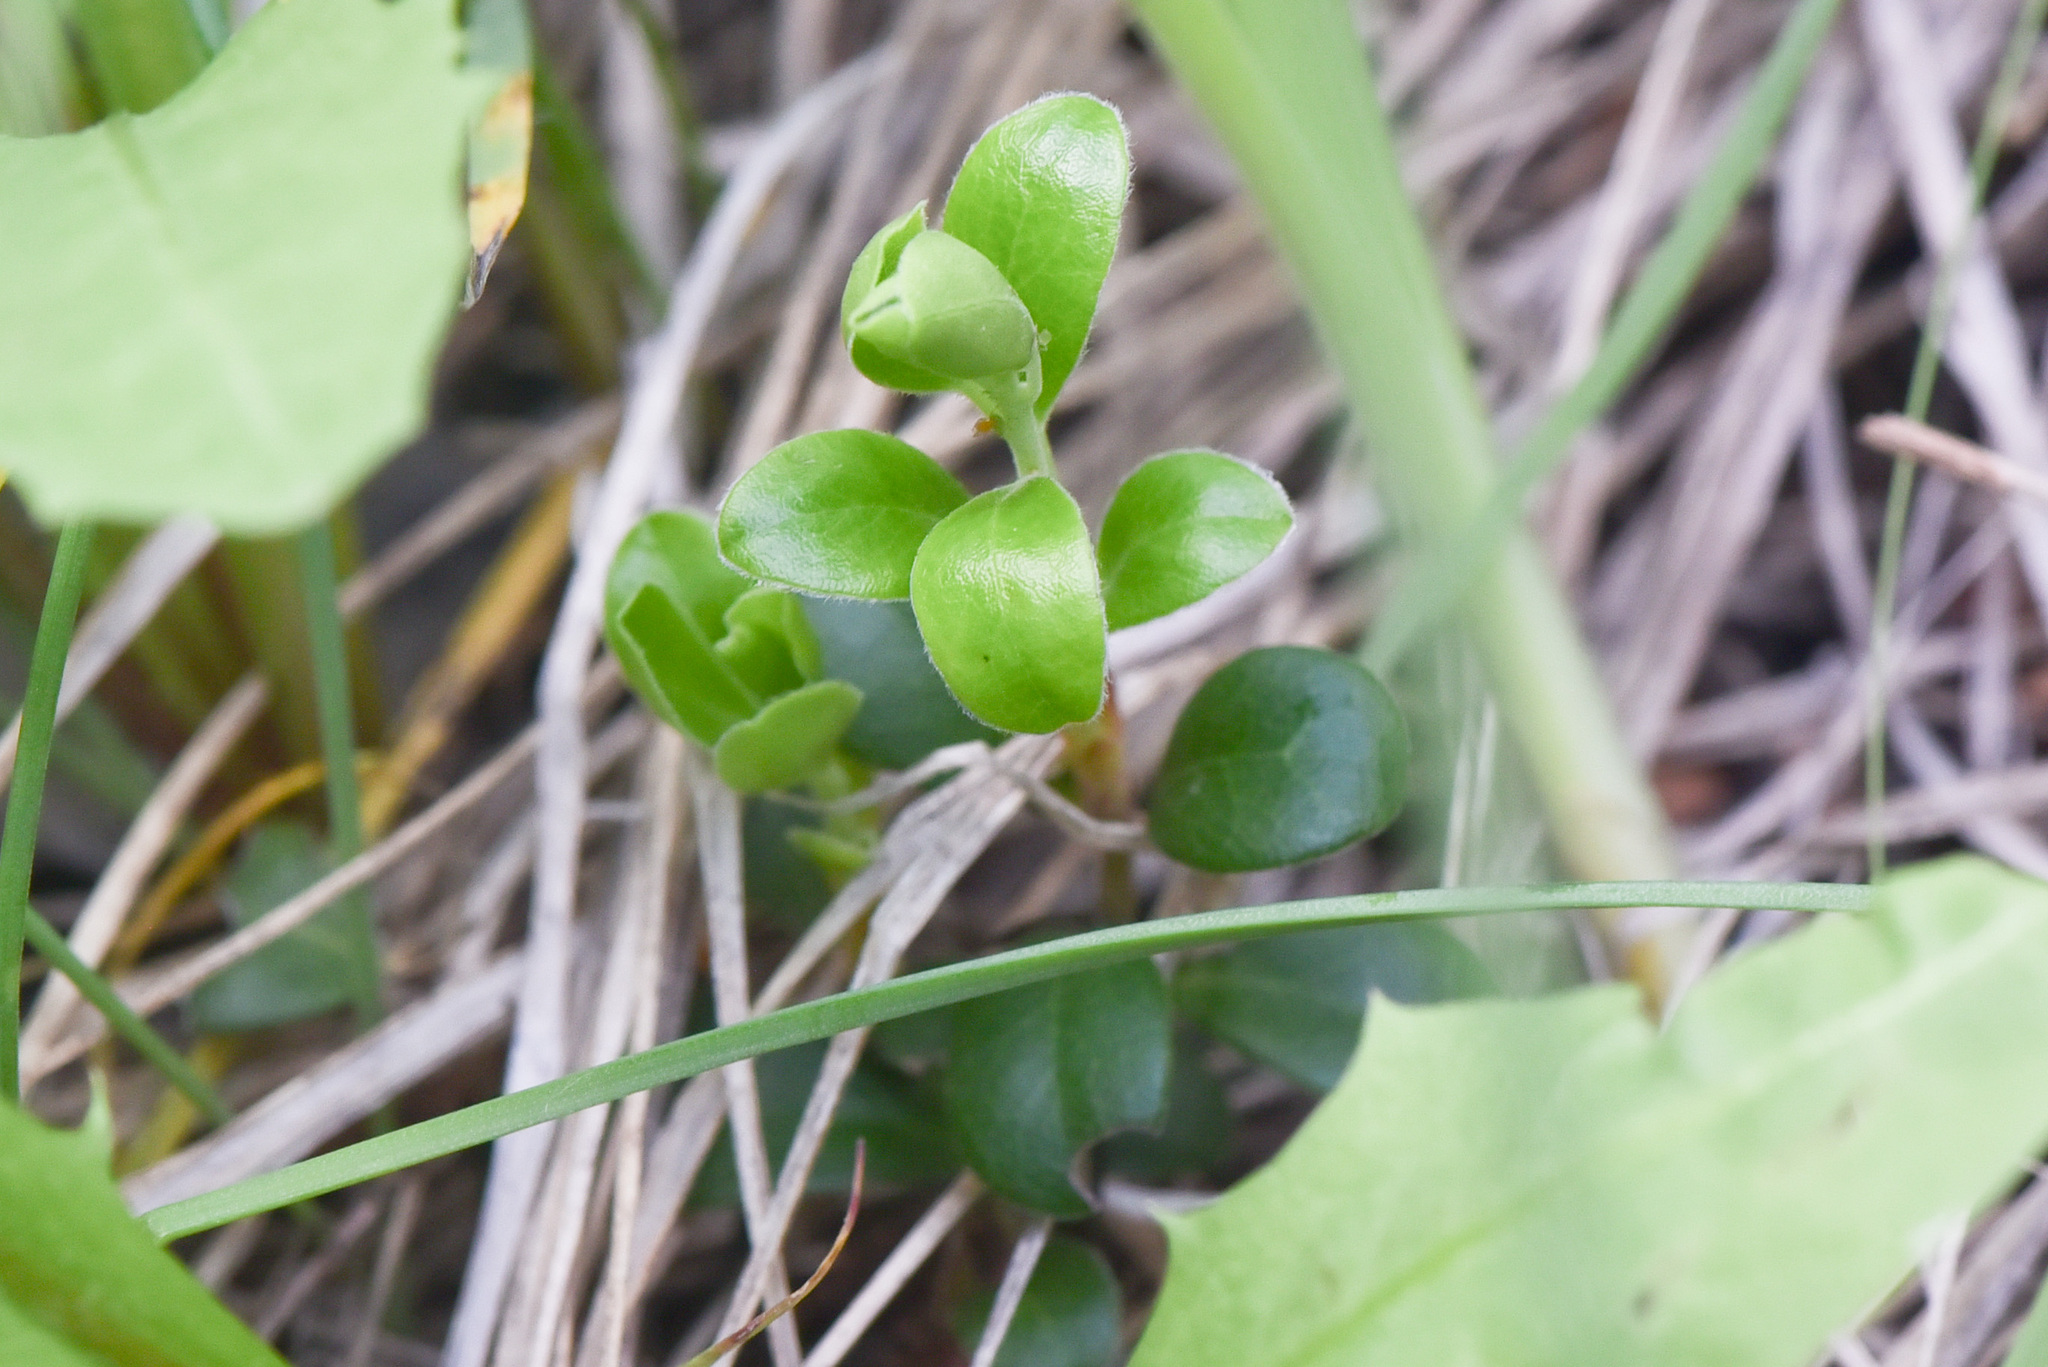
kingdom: Plantae
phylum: Tracheophyta
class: Magnoliopsida
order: Ericales
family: Ericaceae
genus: Arctostaphylos
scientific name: Arctostaphylos uva-ursi
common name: Bearberry
